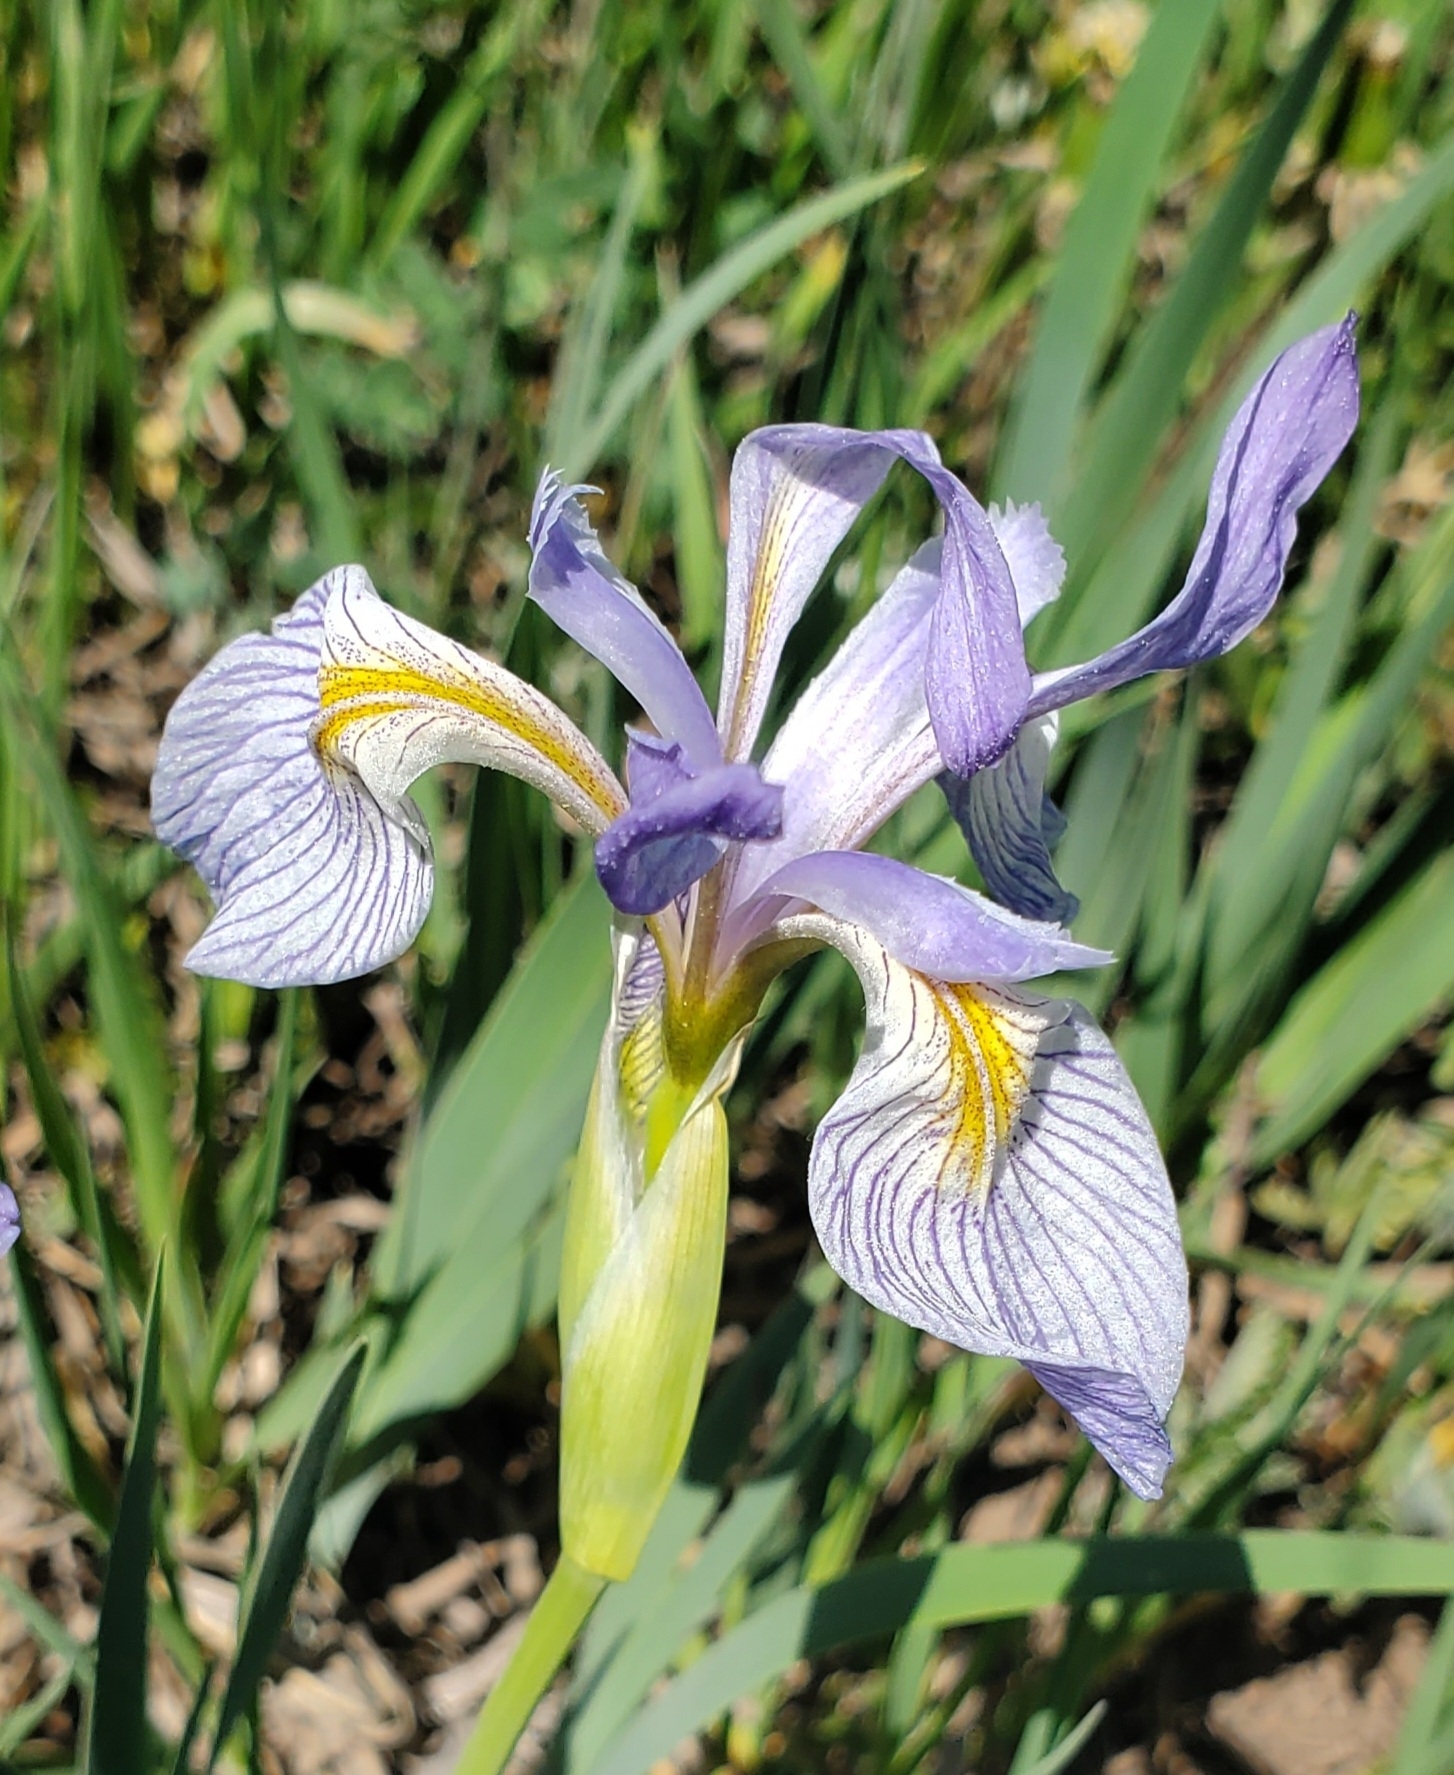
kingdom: Plantae
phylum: Tracheophyta
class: Liliopsida
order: Asparagales
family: Iridaceae
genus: Iris
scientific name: Iris missouriensis
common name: Rocky mountain iris
